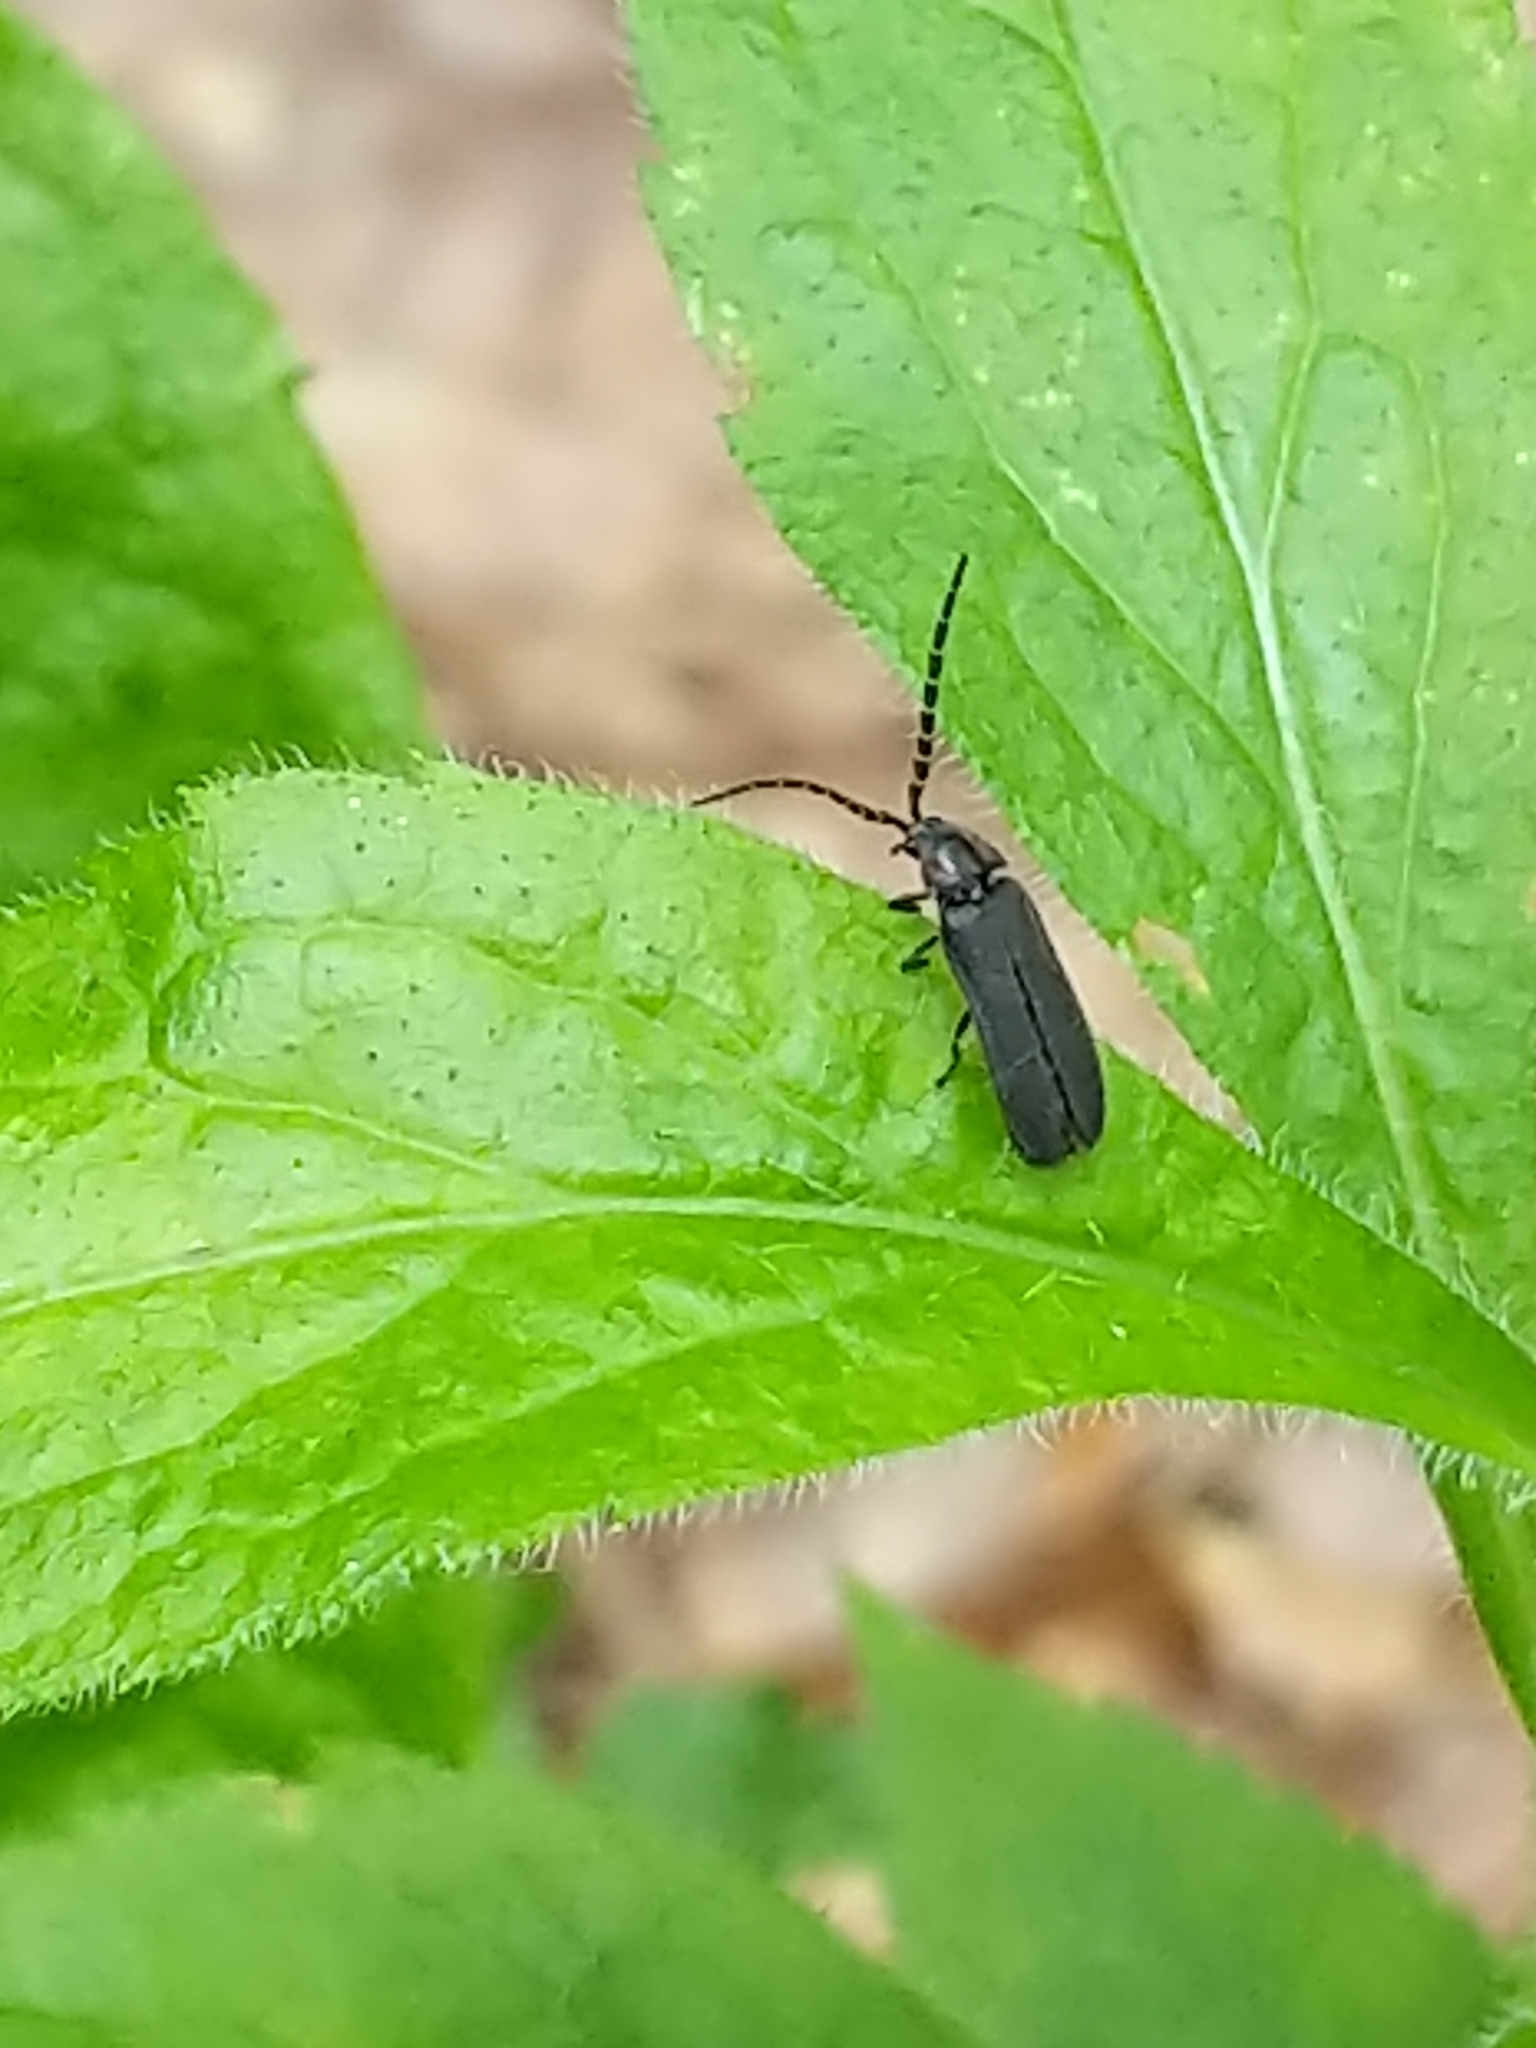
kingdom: Animalia
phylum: Arthropoda
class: Insecta
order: Coleoptera
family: Lampyridae
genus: Lucidota
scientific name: Lucidota atra
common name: Black firefly
